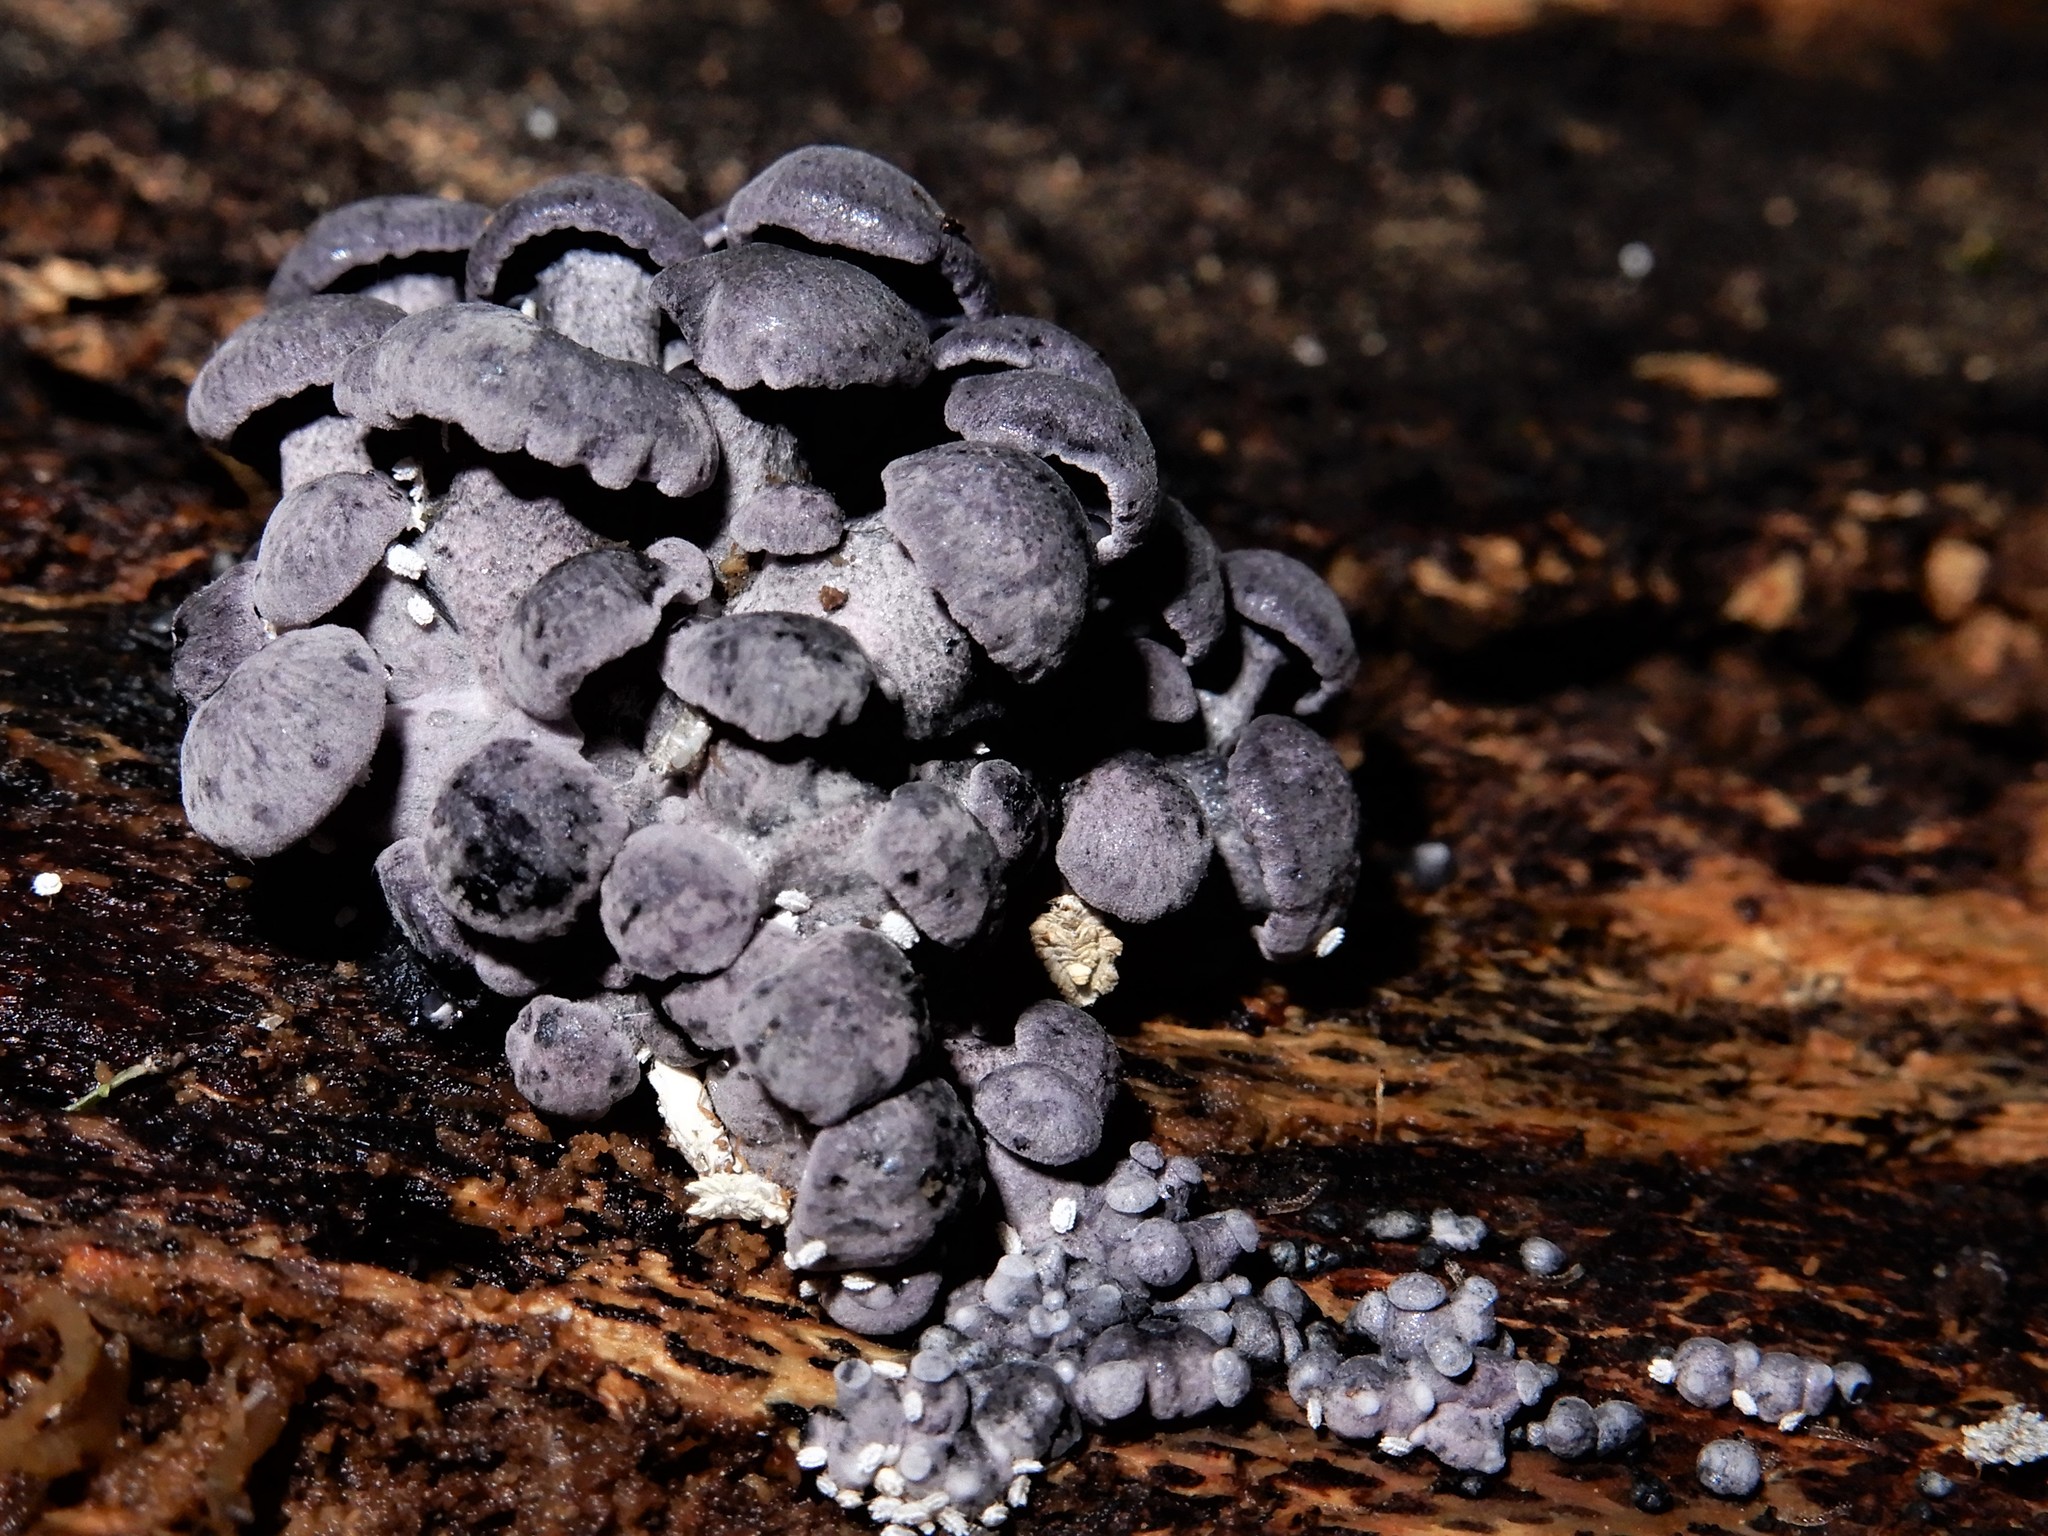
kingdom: Fungi
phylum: Basidiomycota
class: Agaricomycetes
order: Agaricales
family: Marasmiaceae
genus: Gerronema
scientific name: Gerronema waikanaense
